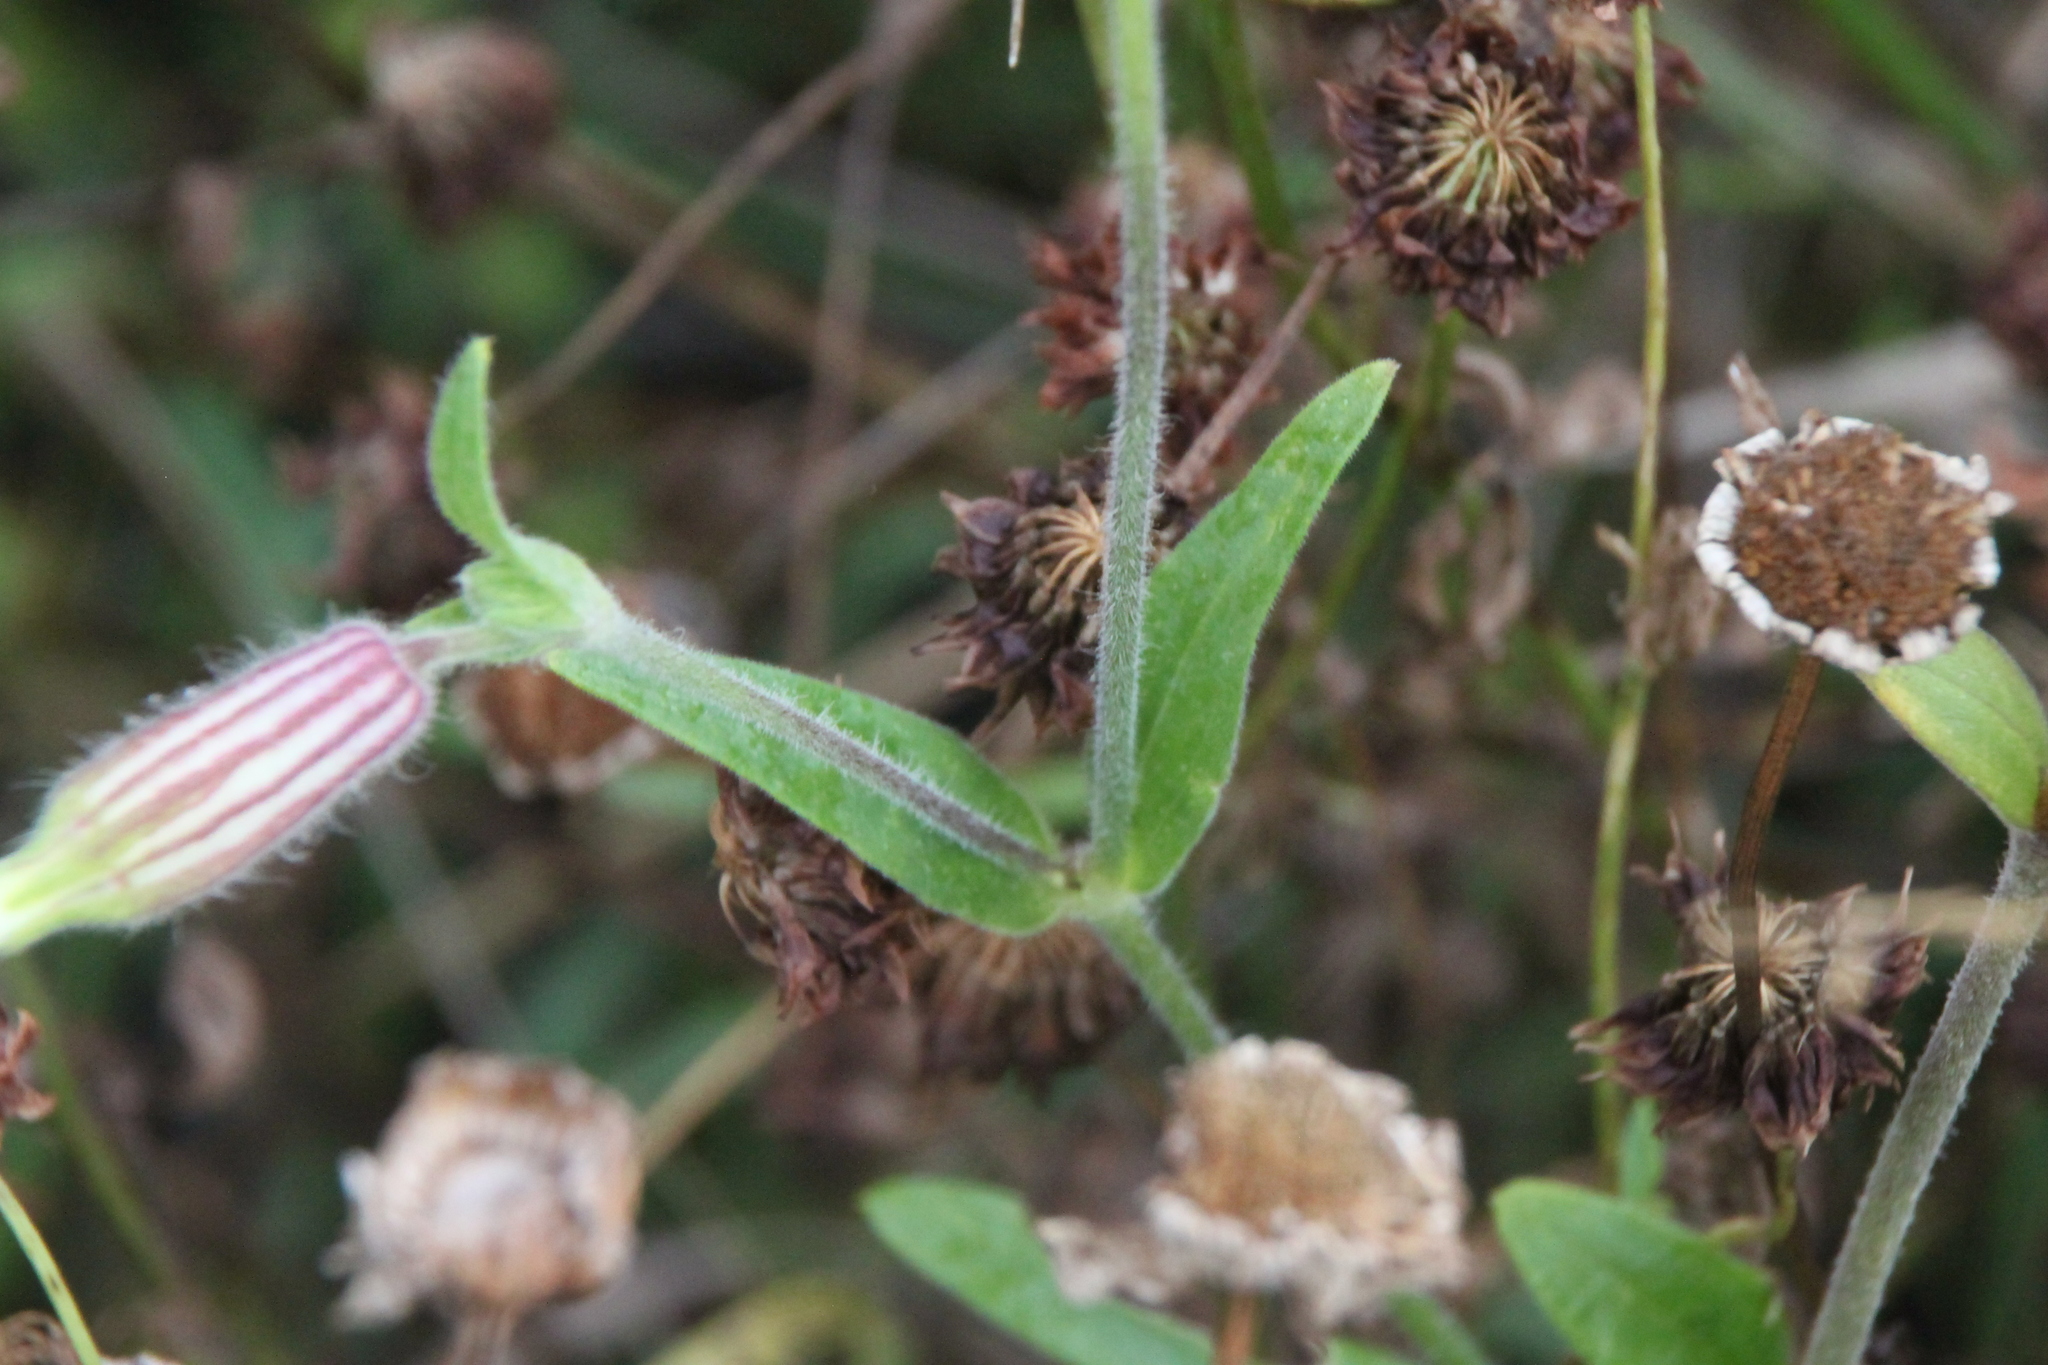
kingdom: Plantae
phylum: Tracheophyta
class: Magnoliopsida
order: Caryophyllales
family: Caryophyllaceae
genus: Silene
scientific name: Silene latifolia
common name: White campion
